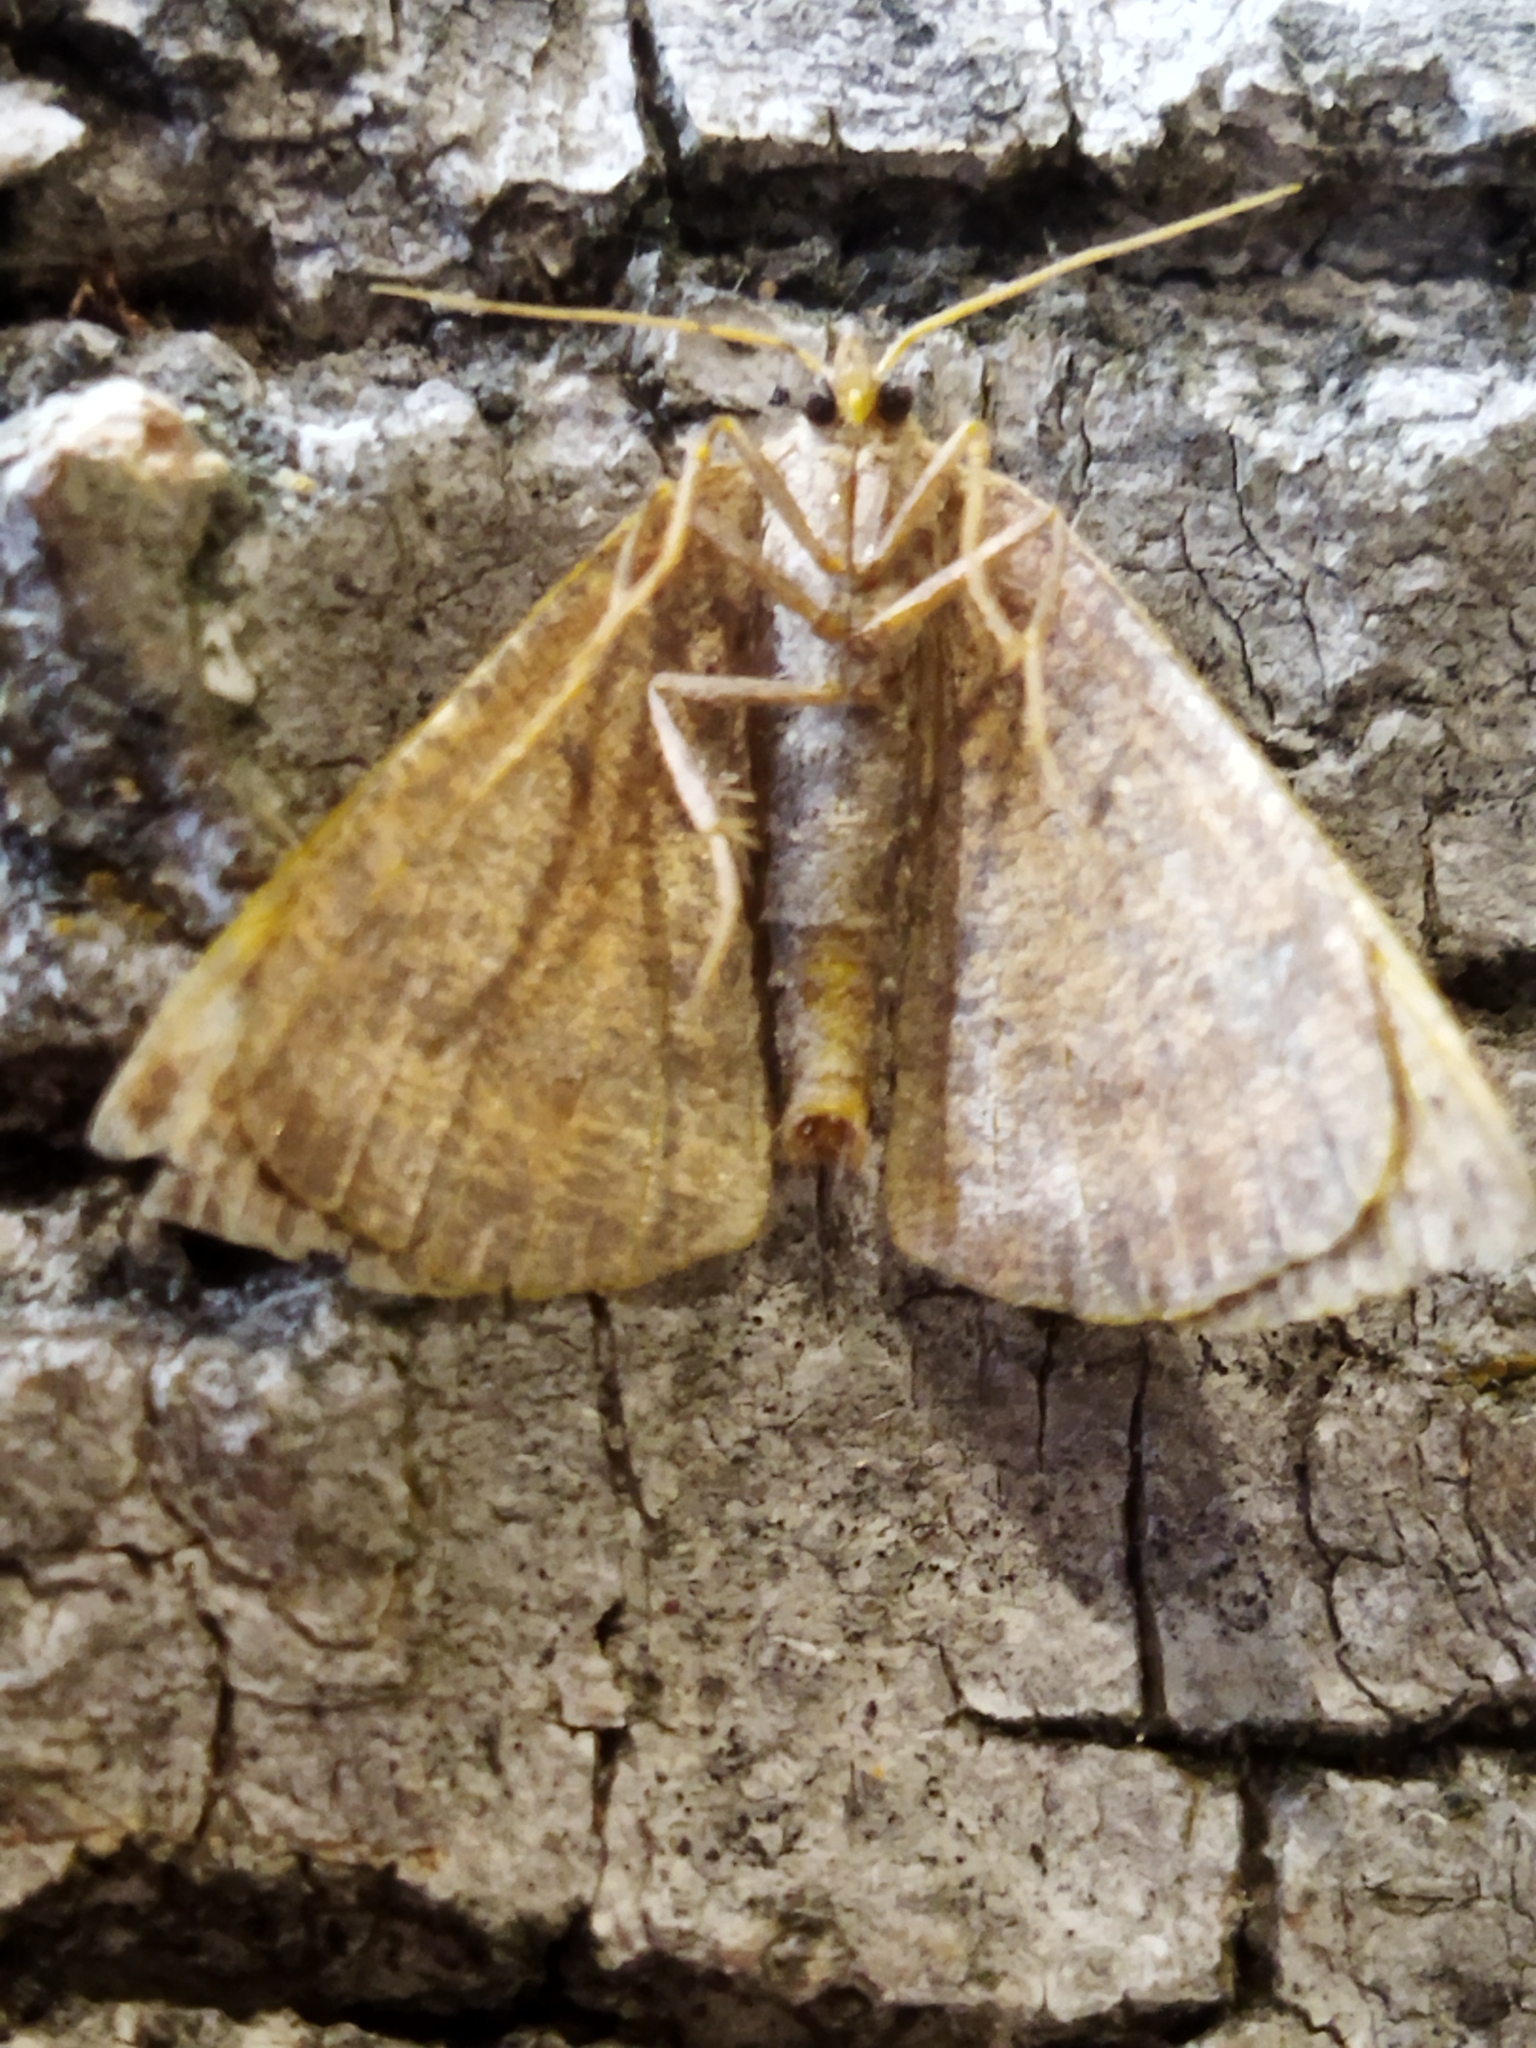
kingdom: Animalia
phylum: Arthropoda
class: Insecta
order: Lepidoptera
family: Geometridae
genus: Aplasta
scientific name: Aplasta ononaria
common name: Rest harrow
